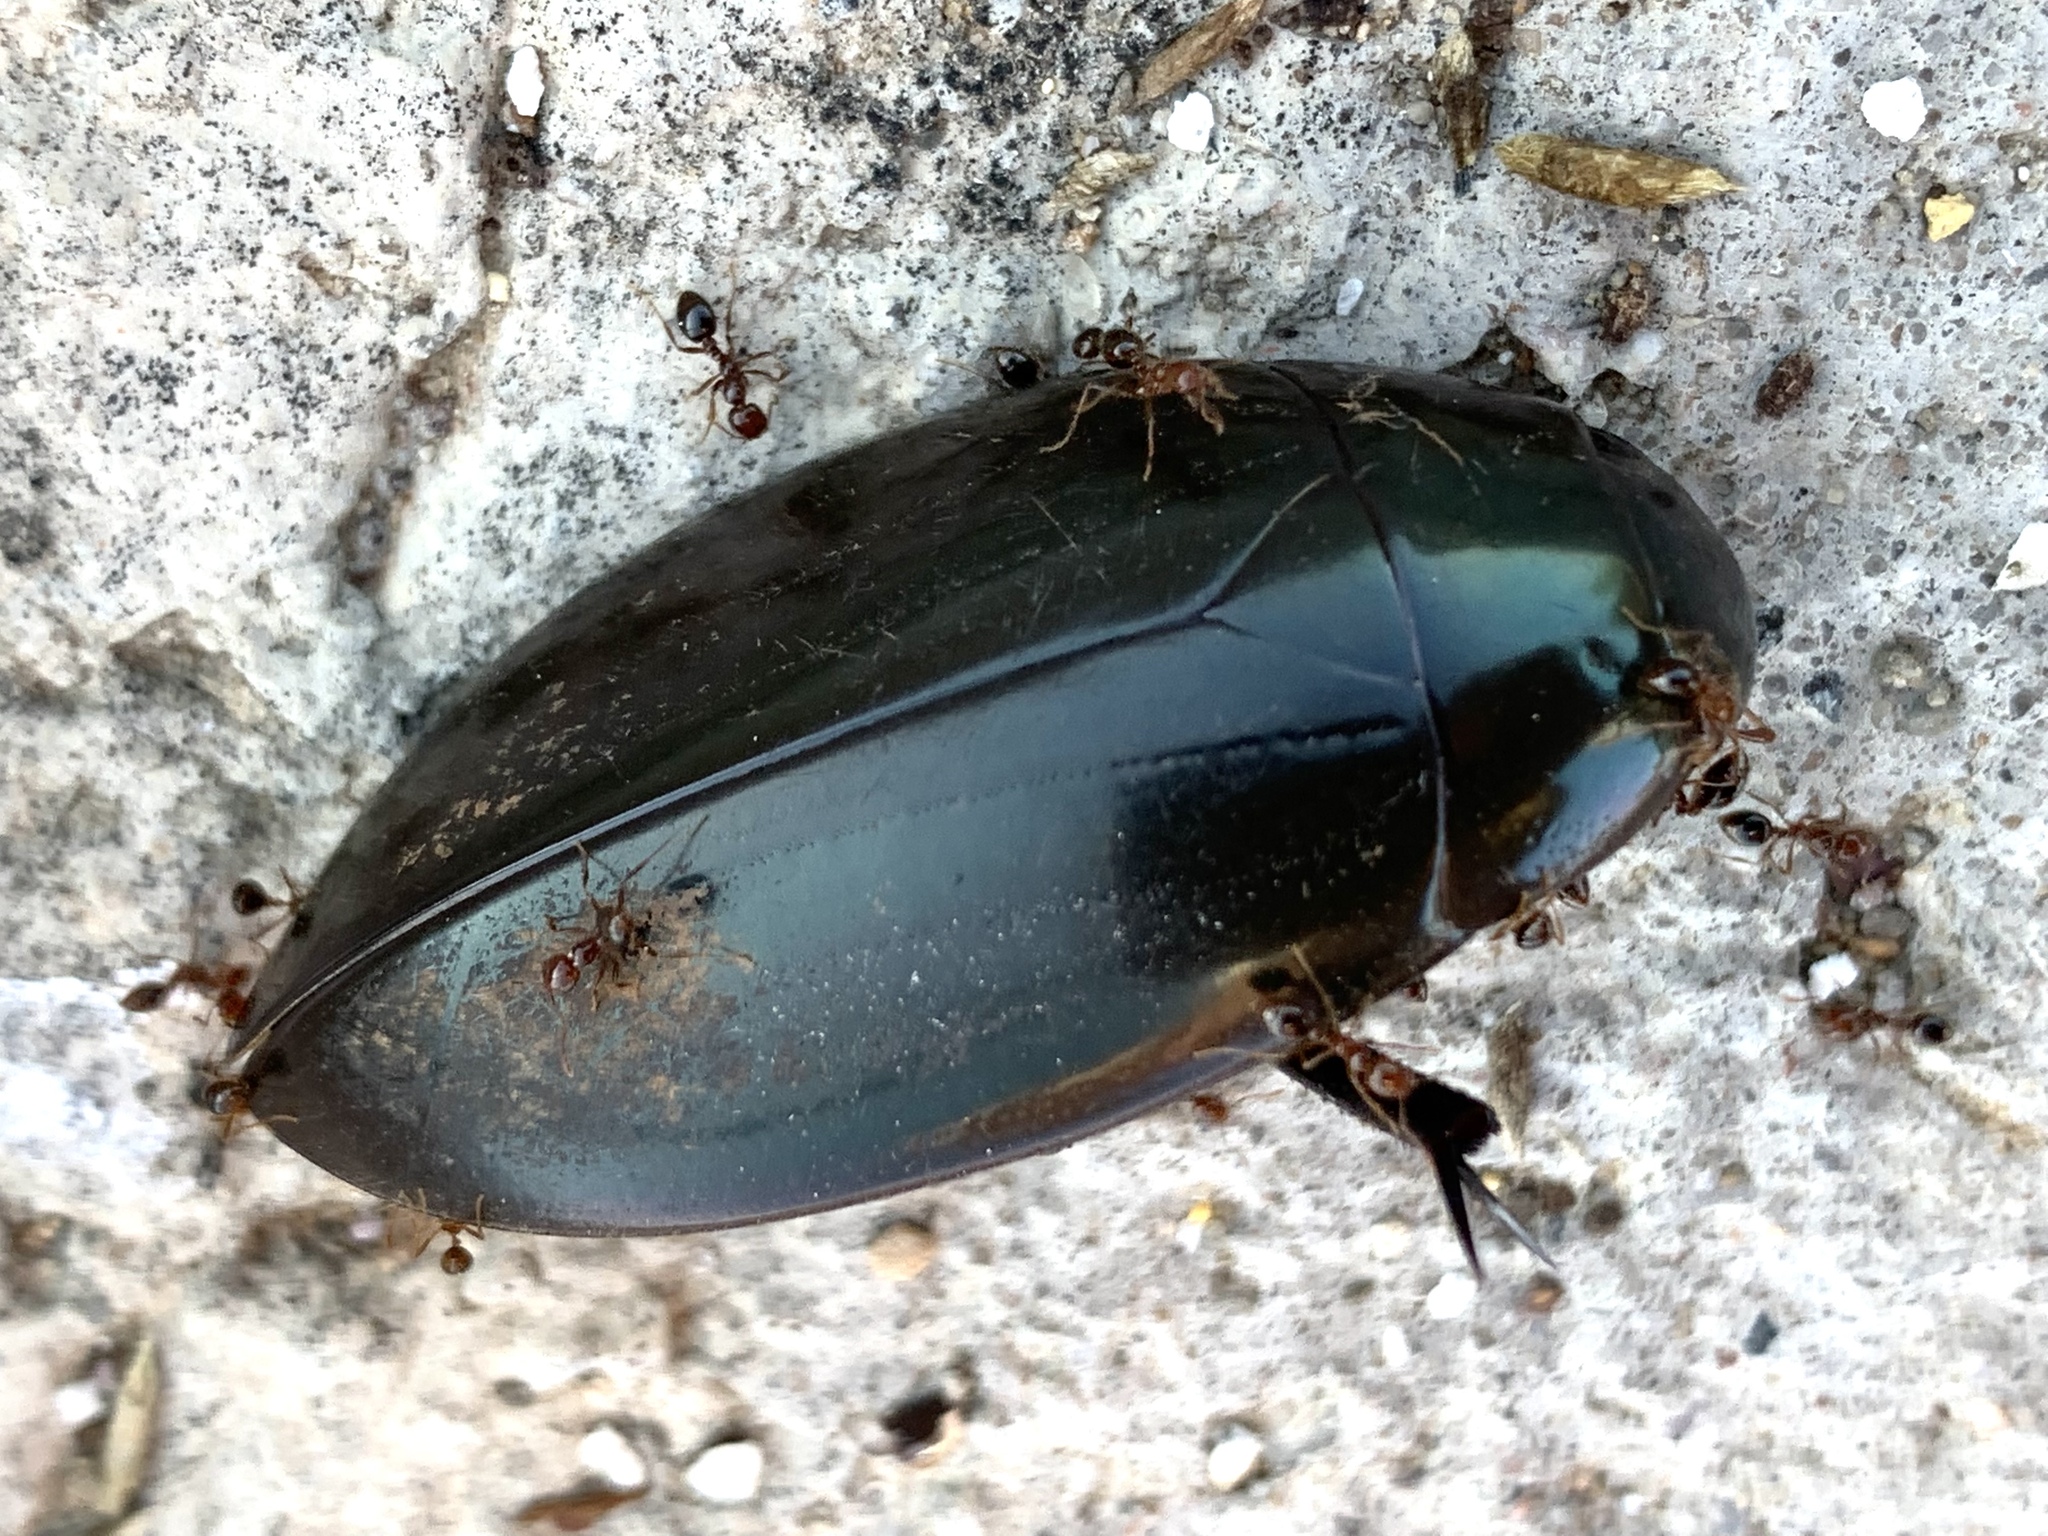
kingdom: Animalia
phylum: Arthropoda
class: Insecta
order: Coleoptera
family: Hydrophilidae
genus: Hydrophilus
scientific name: Hydrophilus triangularis
